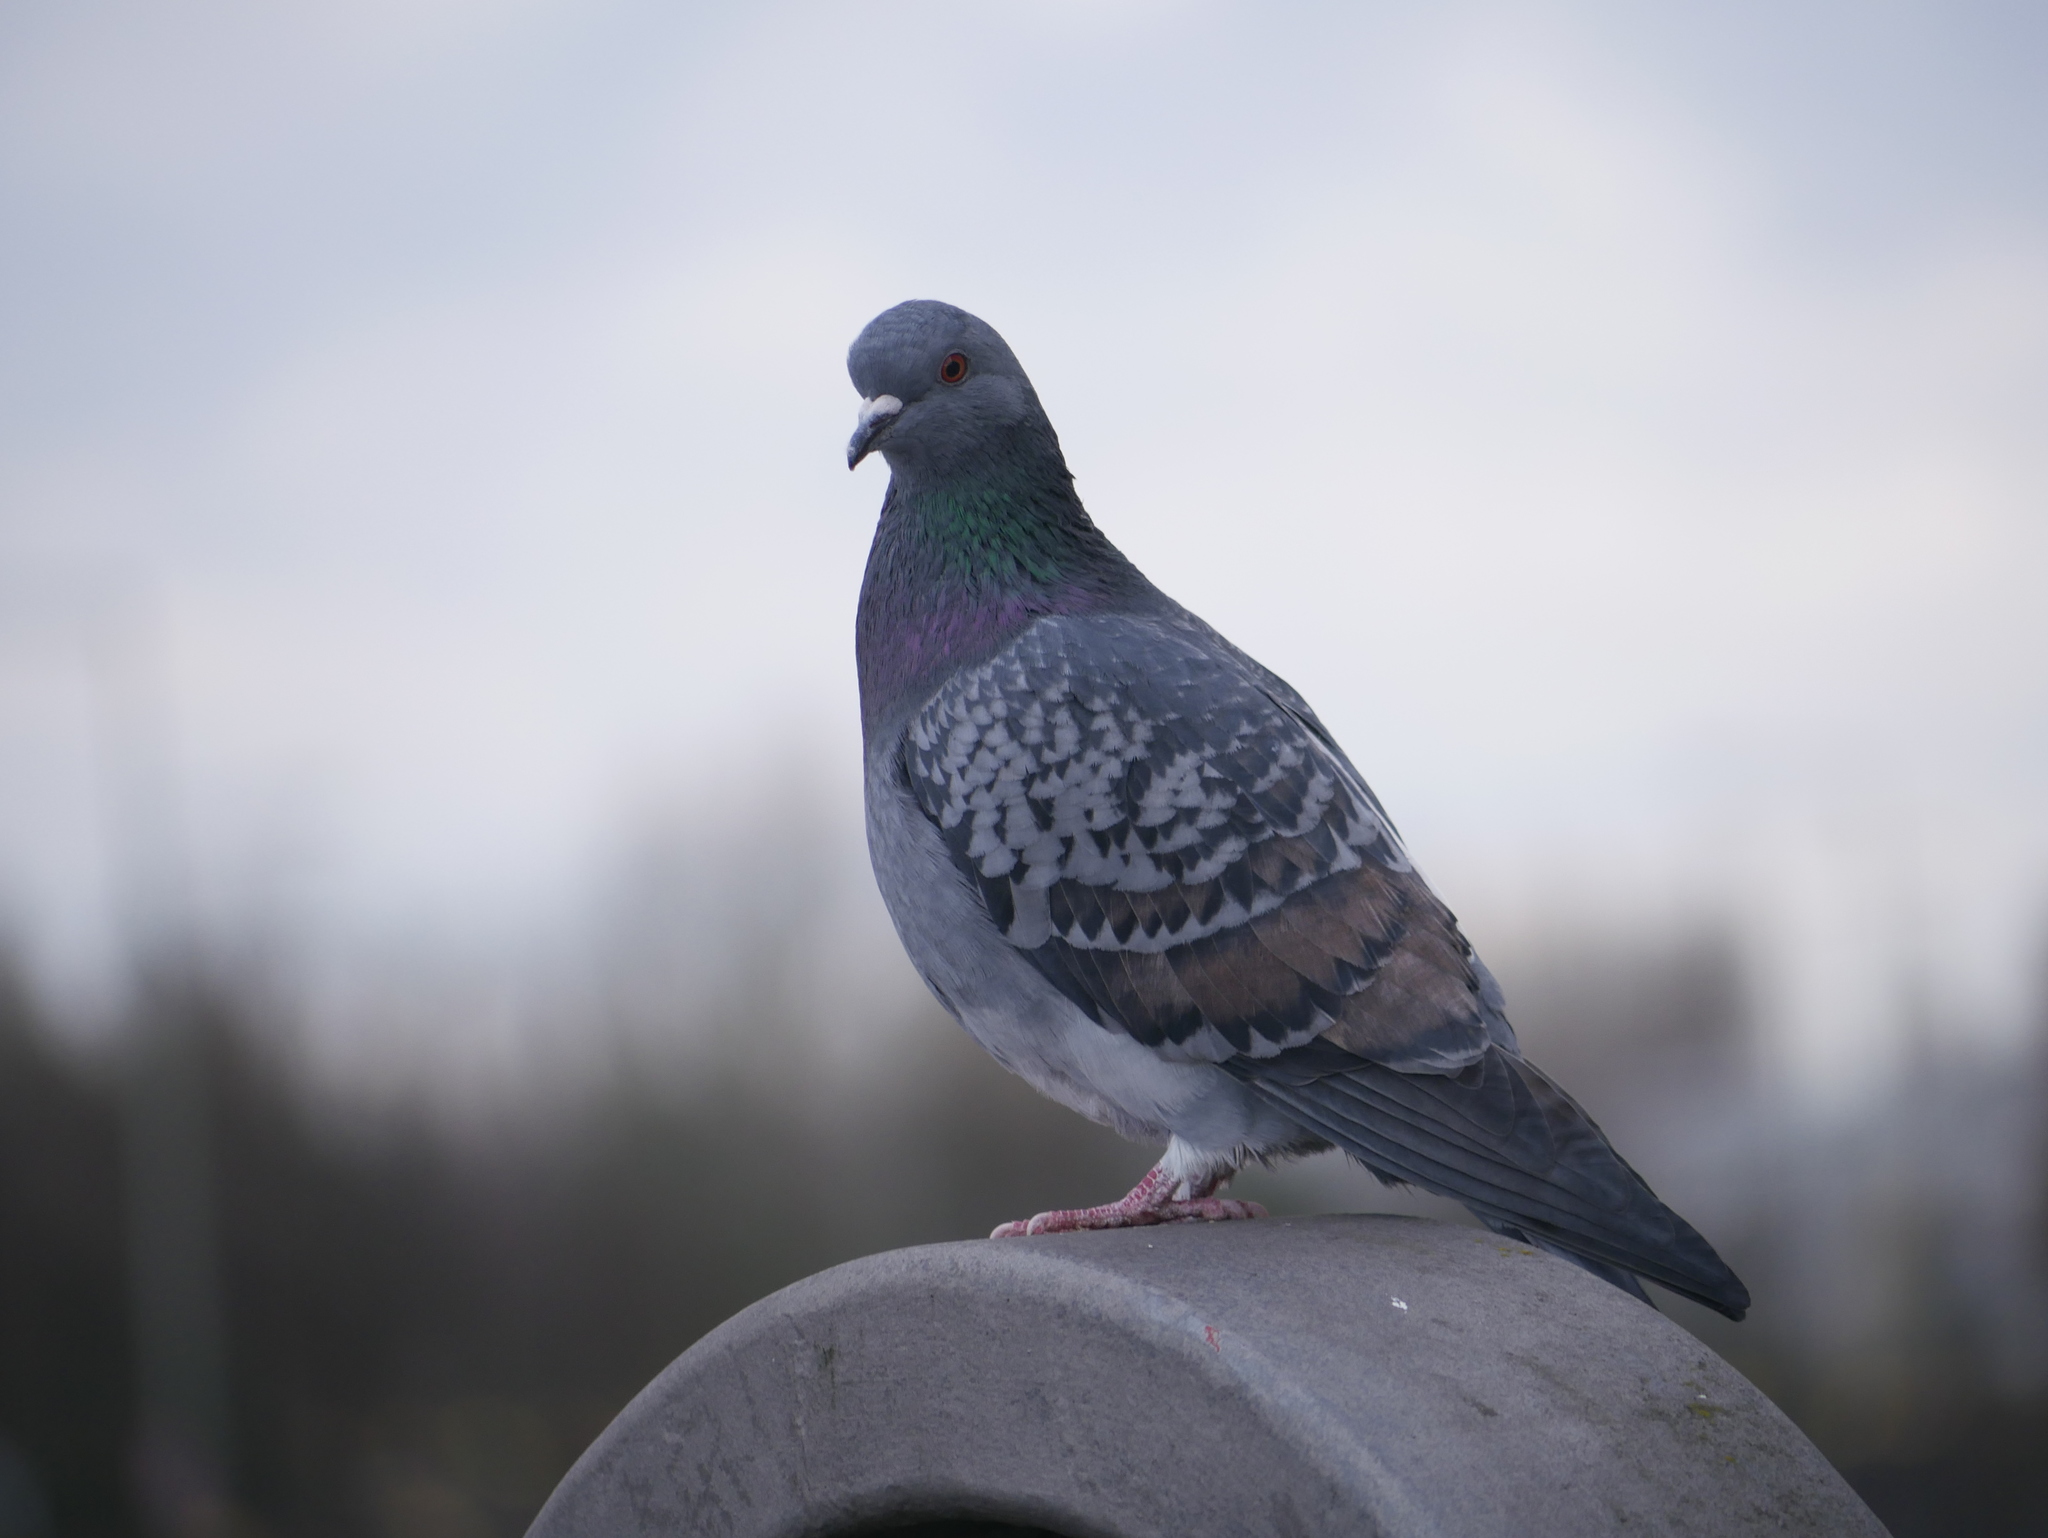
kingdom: Animalia
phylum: Chordata
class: Aves
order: Columbiformes
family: Columbidae
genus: Columba
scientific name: Columba livia
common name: Rock pigeon
